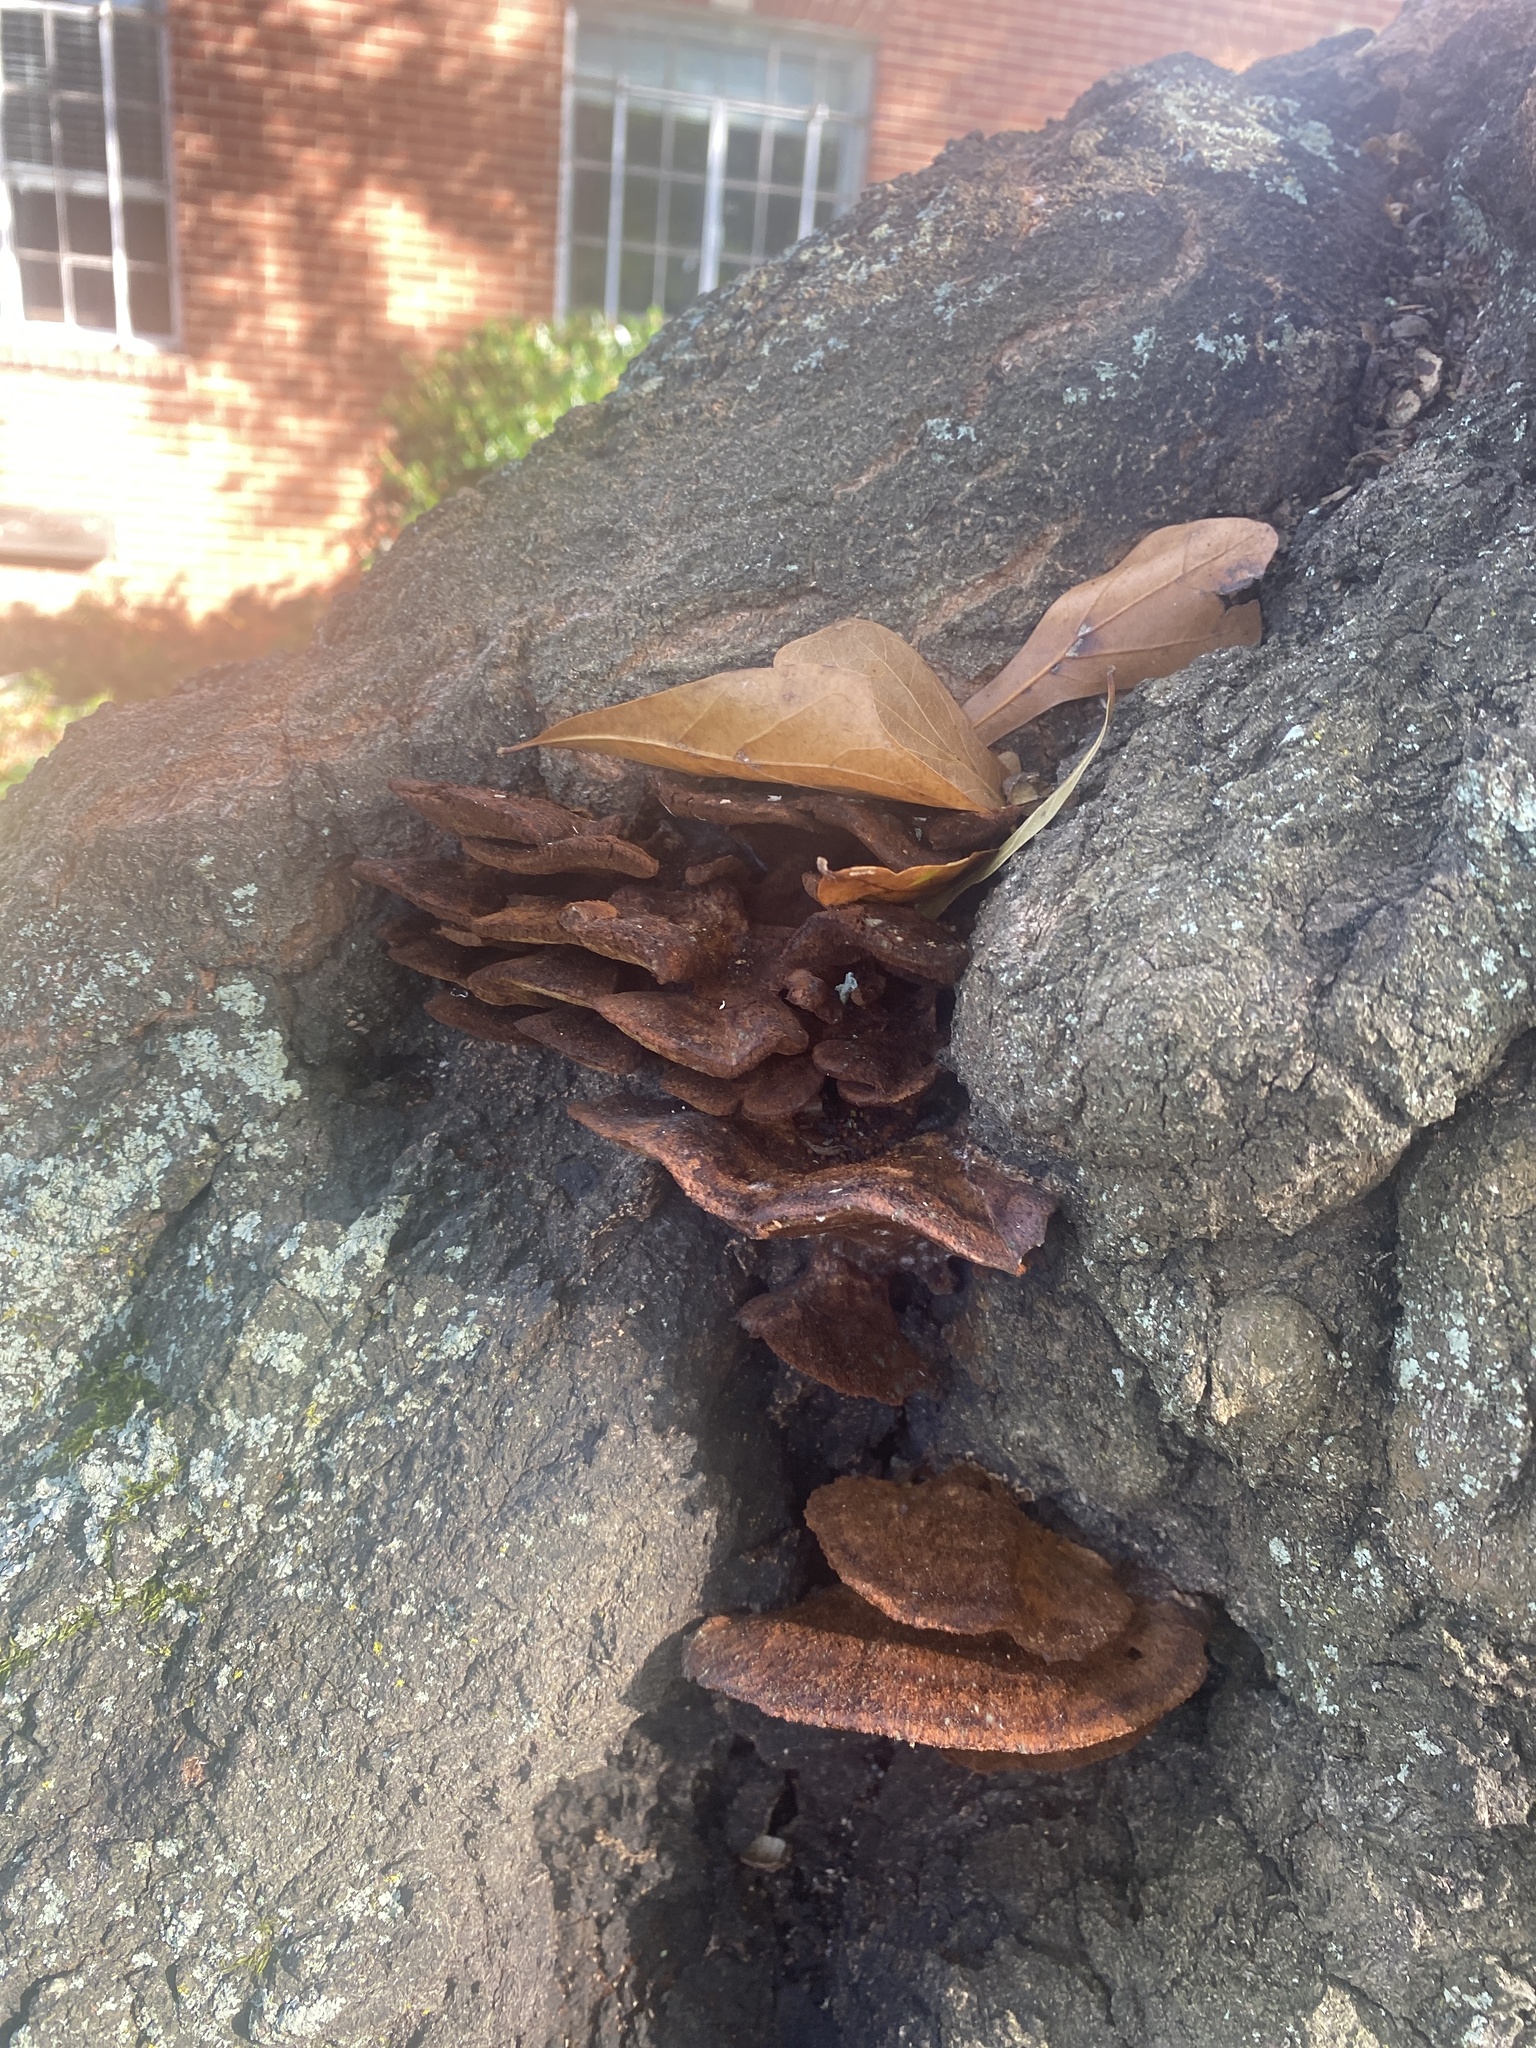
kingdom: Fungi
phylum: Basidiomycota
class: Agaricomycetes
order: Hymenochaetales
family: Hymenochaetaceae
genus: Inonotus
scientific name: Inonotus cuticularis
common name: Clustered bracket
